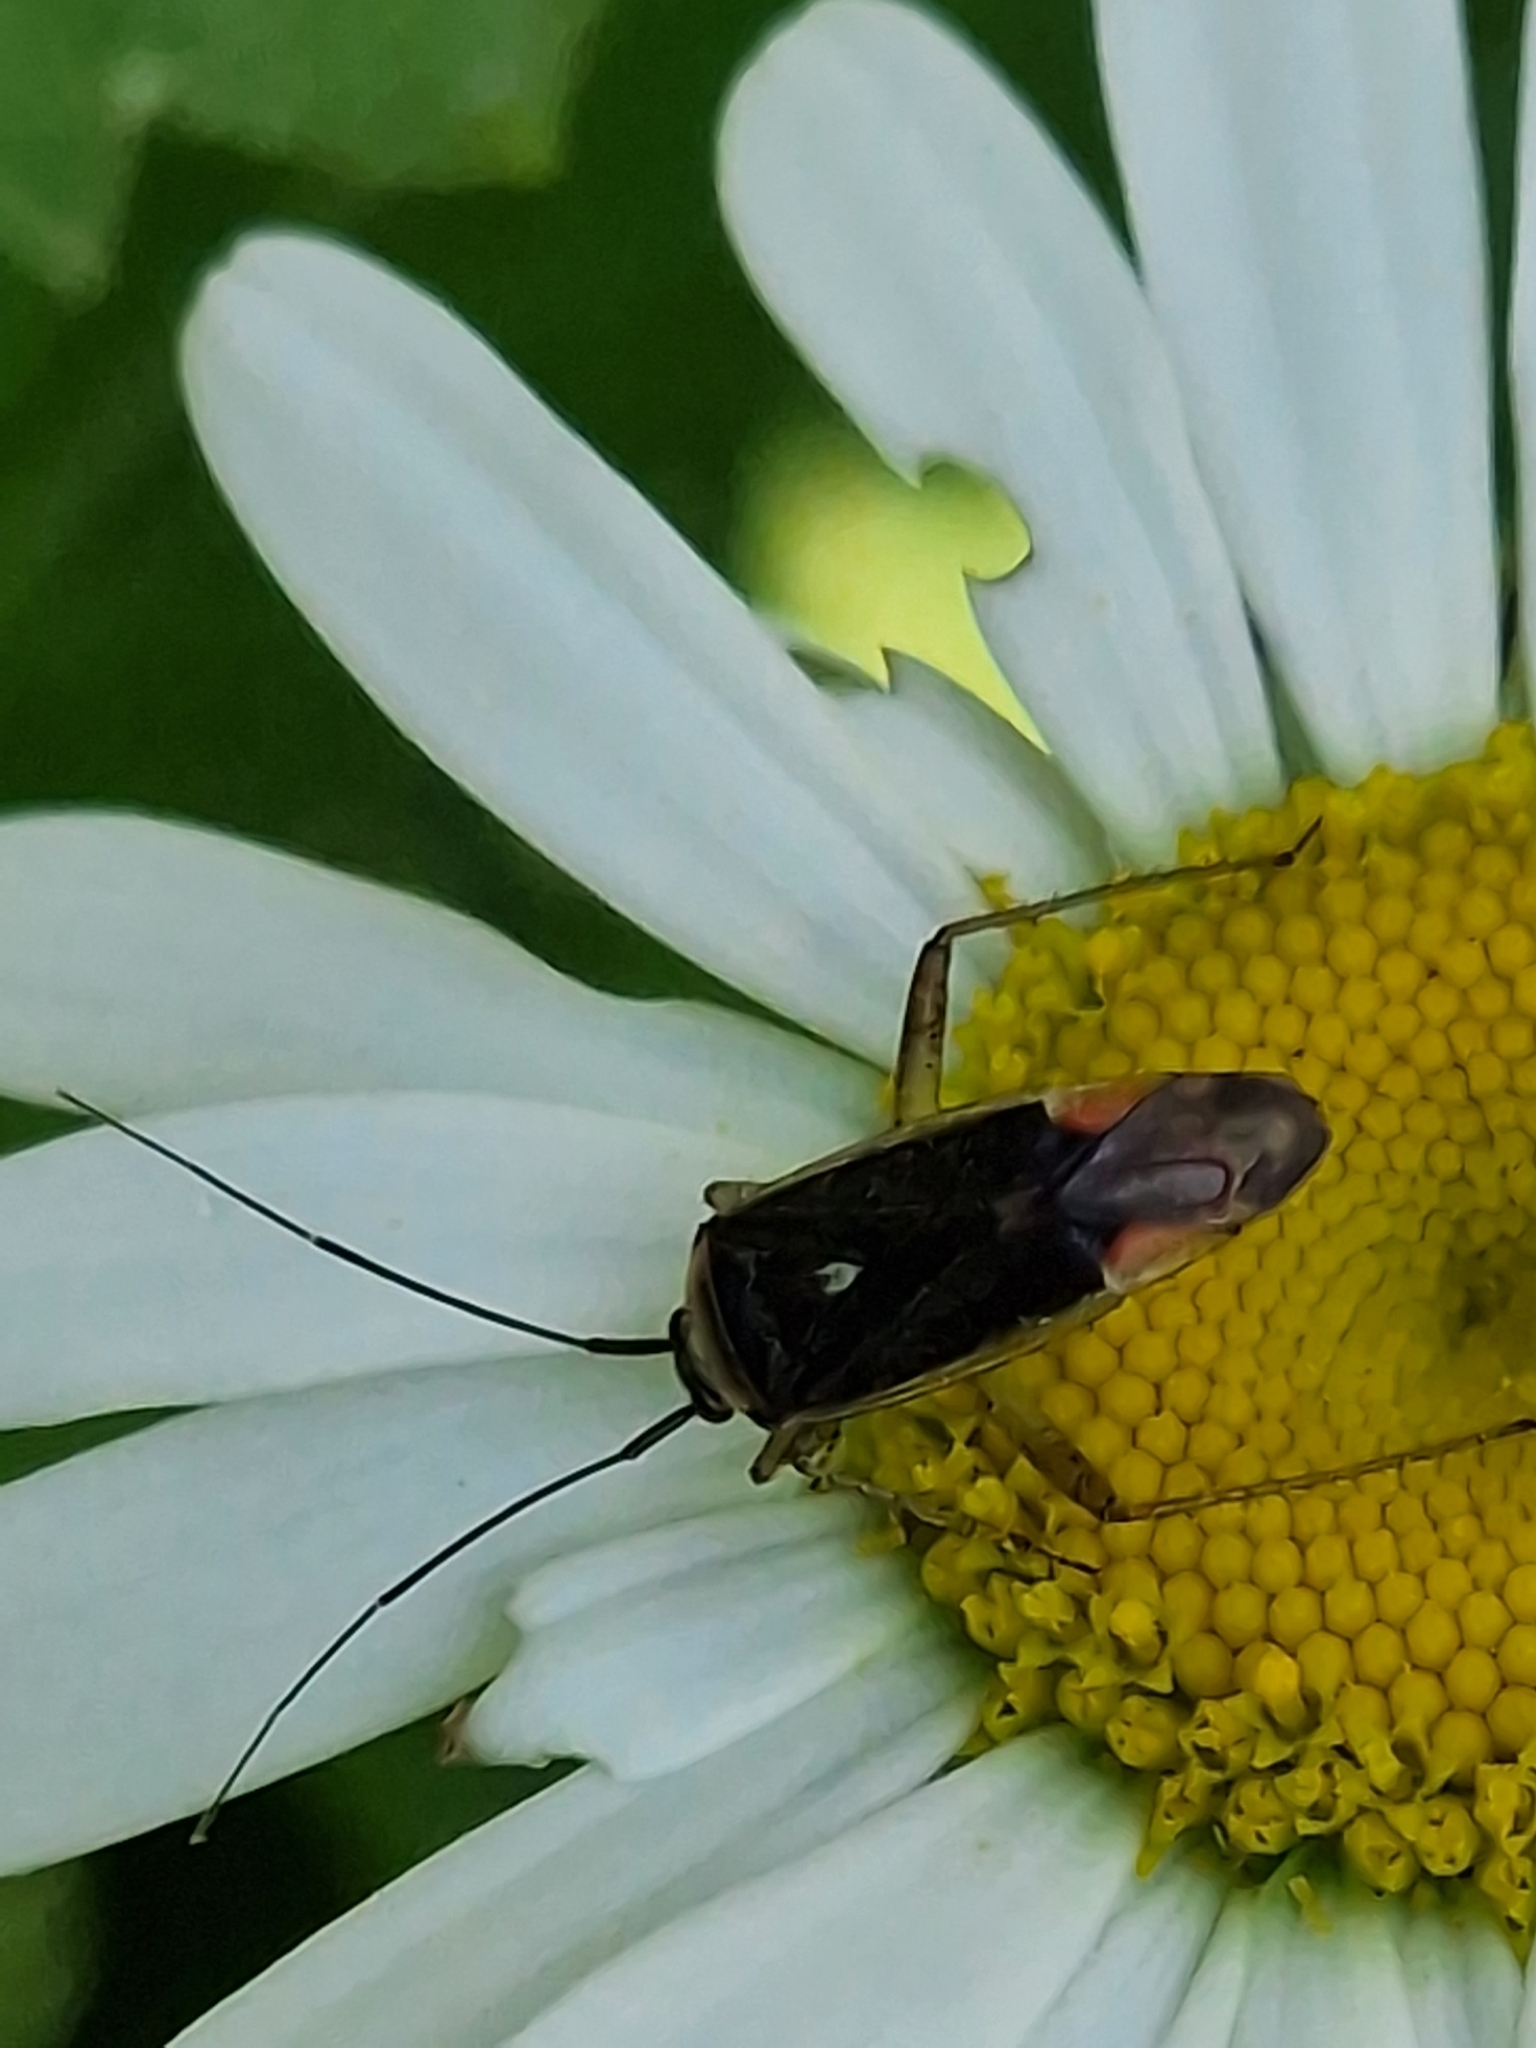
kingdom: Animalia
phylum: Arthropoda
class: Insecta
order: Hemiptera
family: Miridae
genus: Closterotomus
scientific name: Closterotomus trivialis
